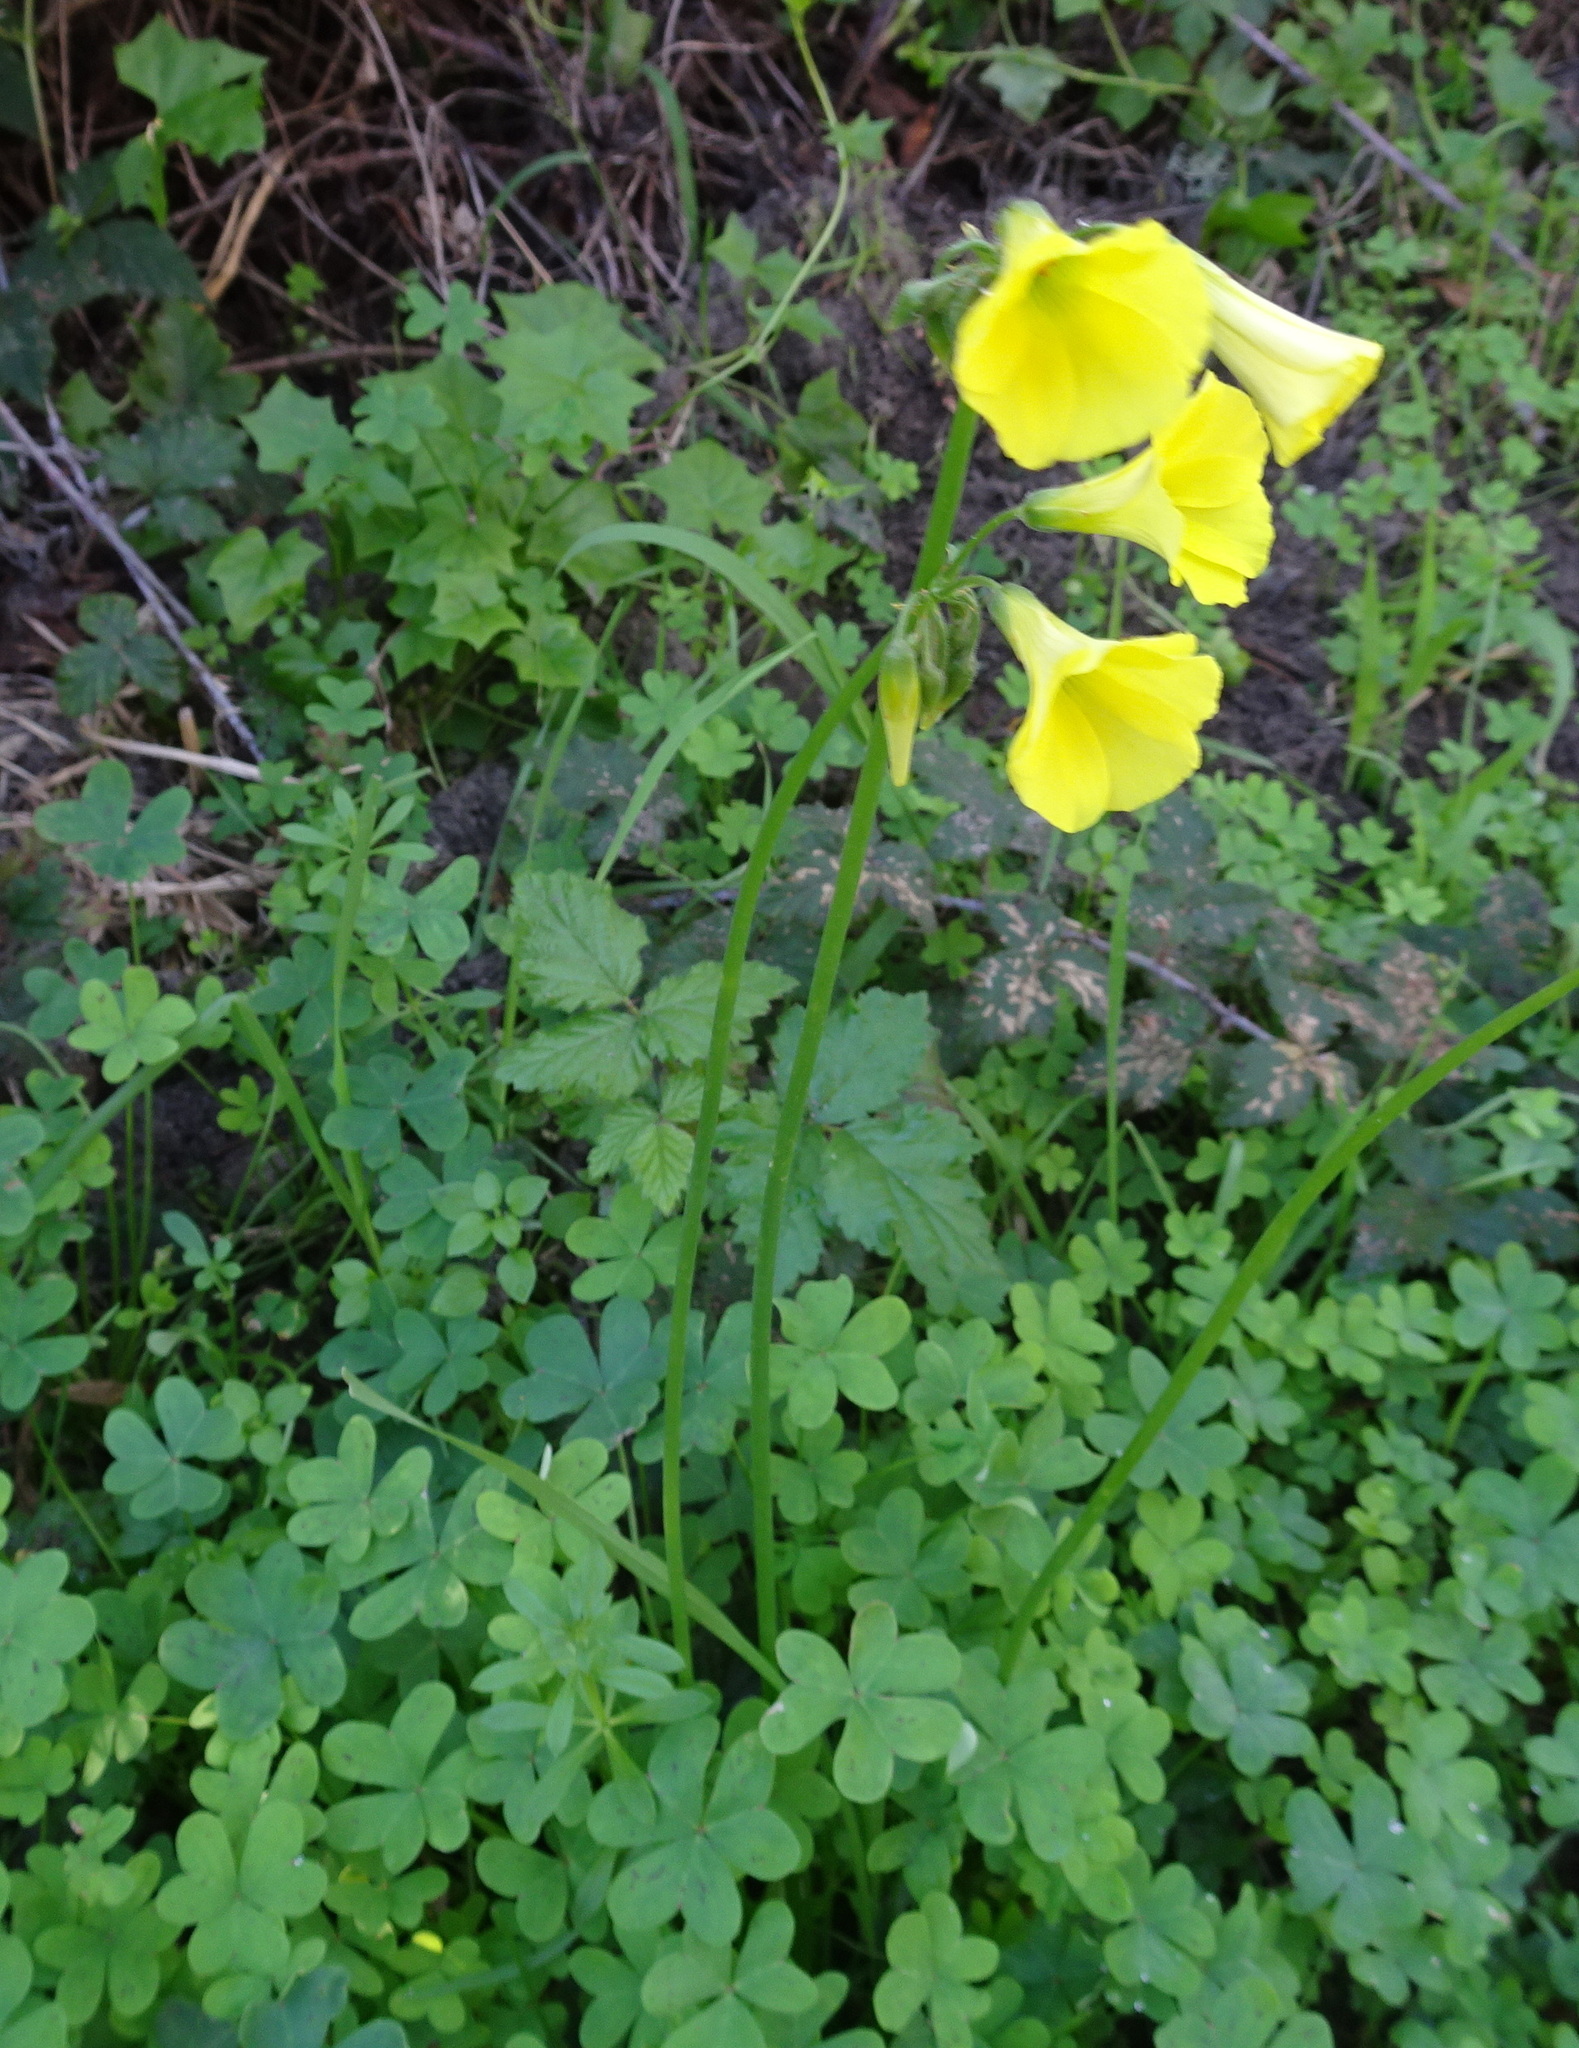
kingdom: Plantae
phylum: Tracheophyta
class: Magnoliopsida
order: Oxalidales
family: Oxalidaceae
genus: Oxalis
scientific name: Oxalis pes-caprae
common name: Bermuda-buttercup
